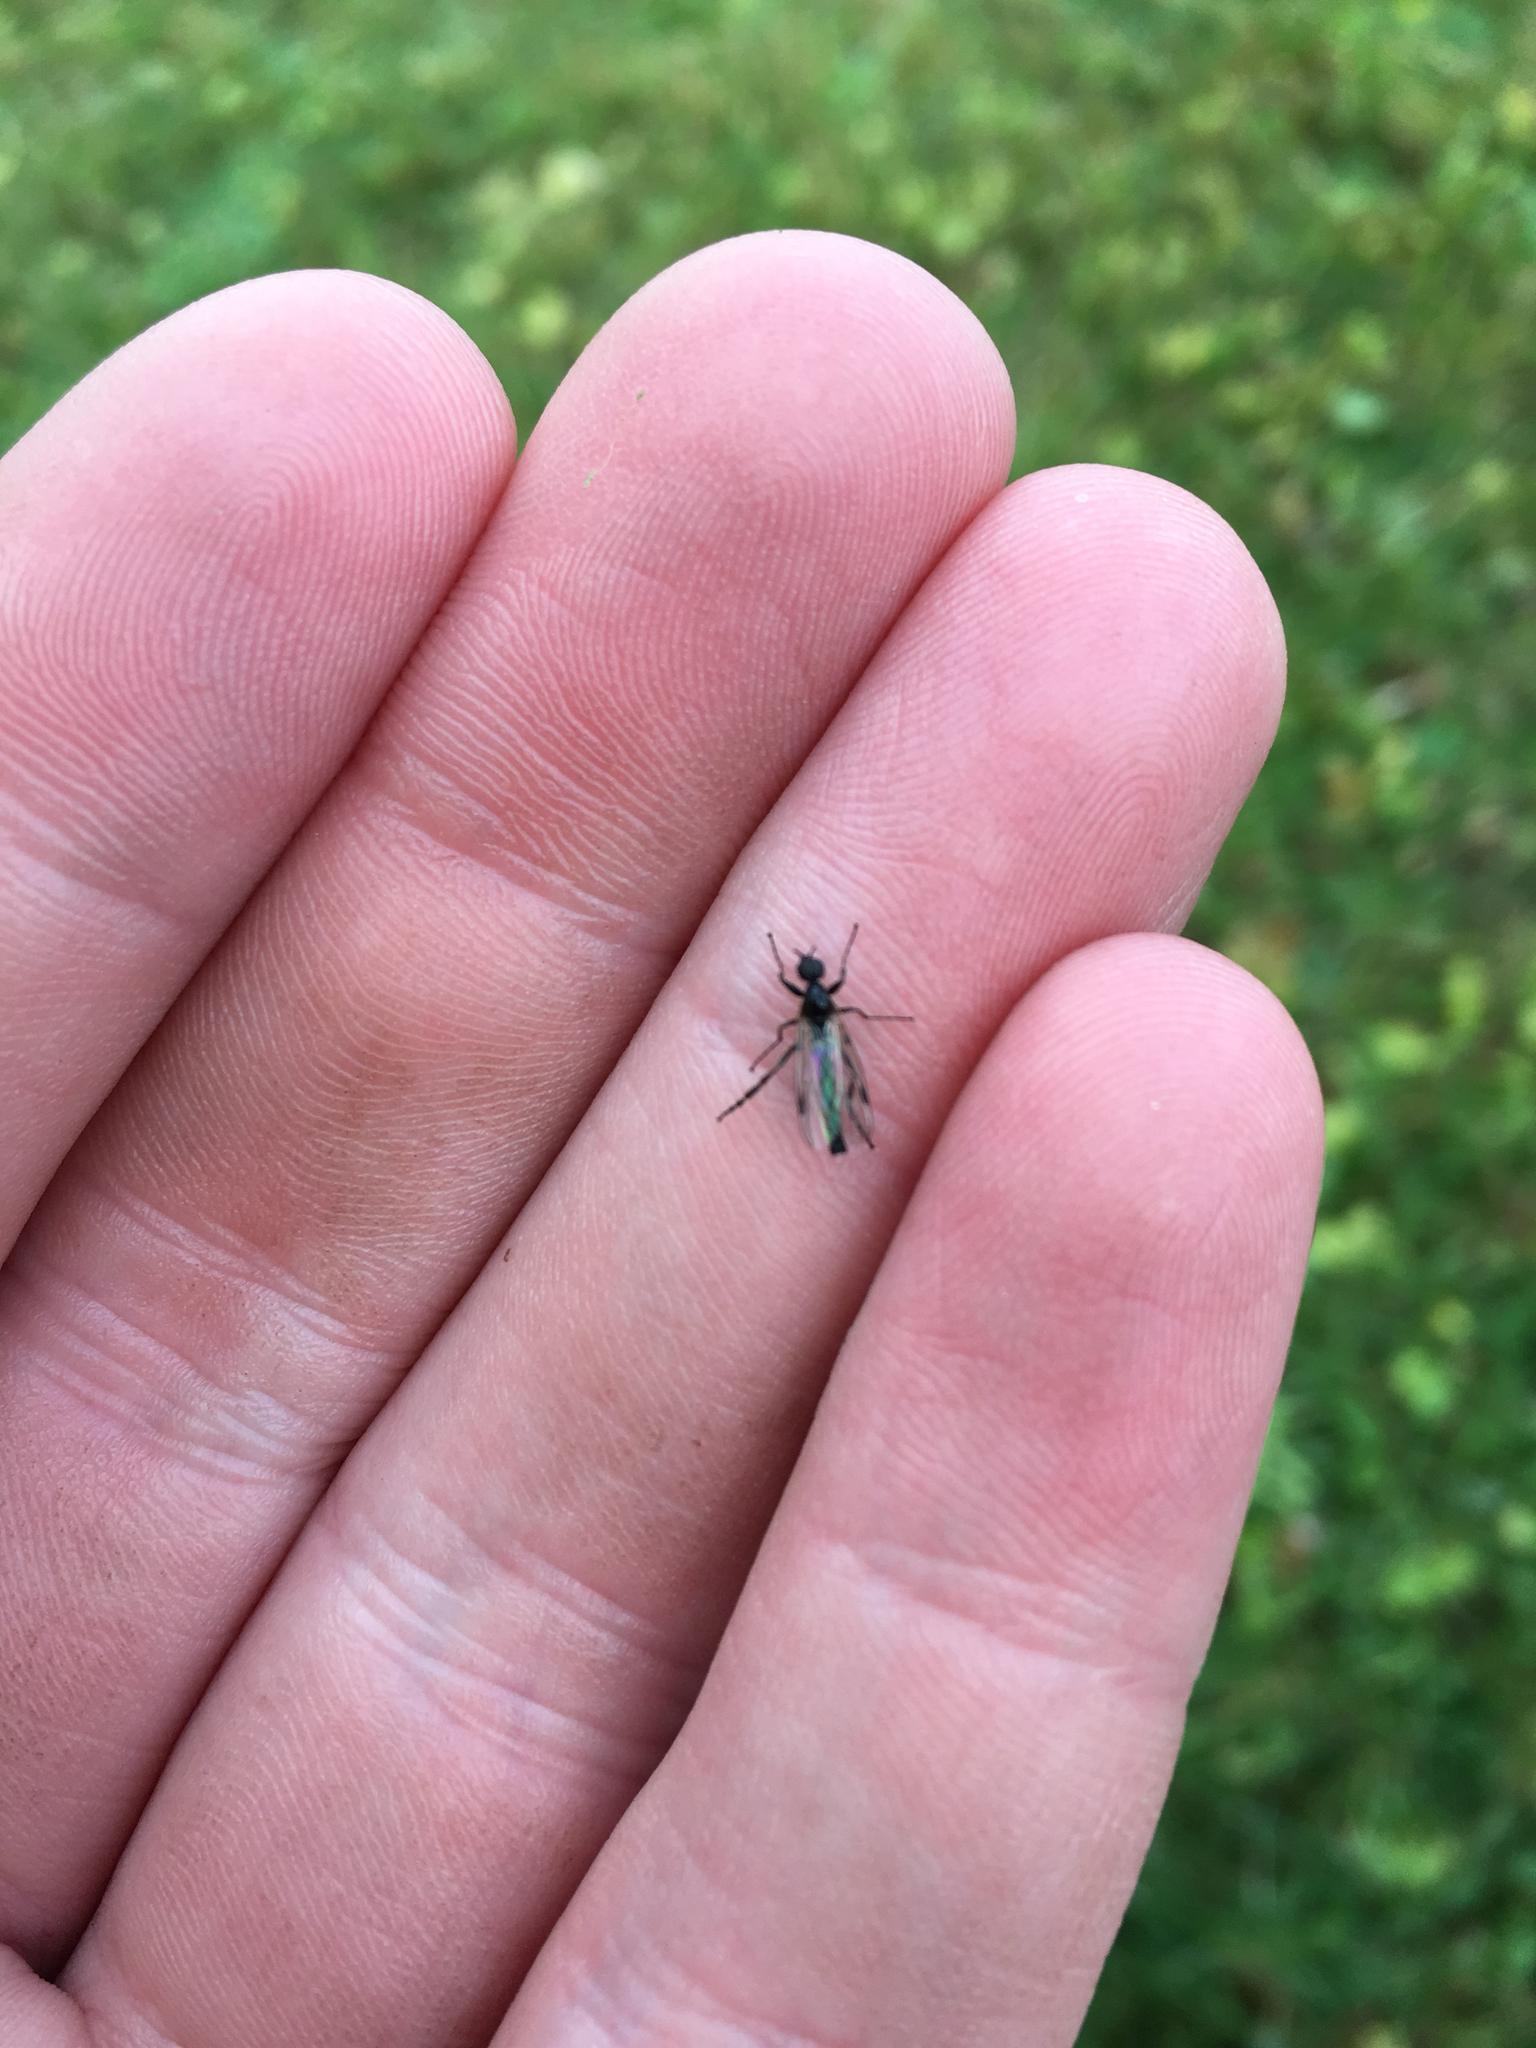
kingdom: Animalia
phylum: Arthropoda
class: Insecta
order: Diptera
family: Bibionidae
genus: Bibio
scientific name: Bibio
